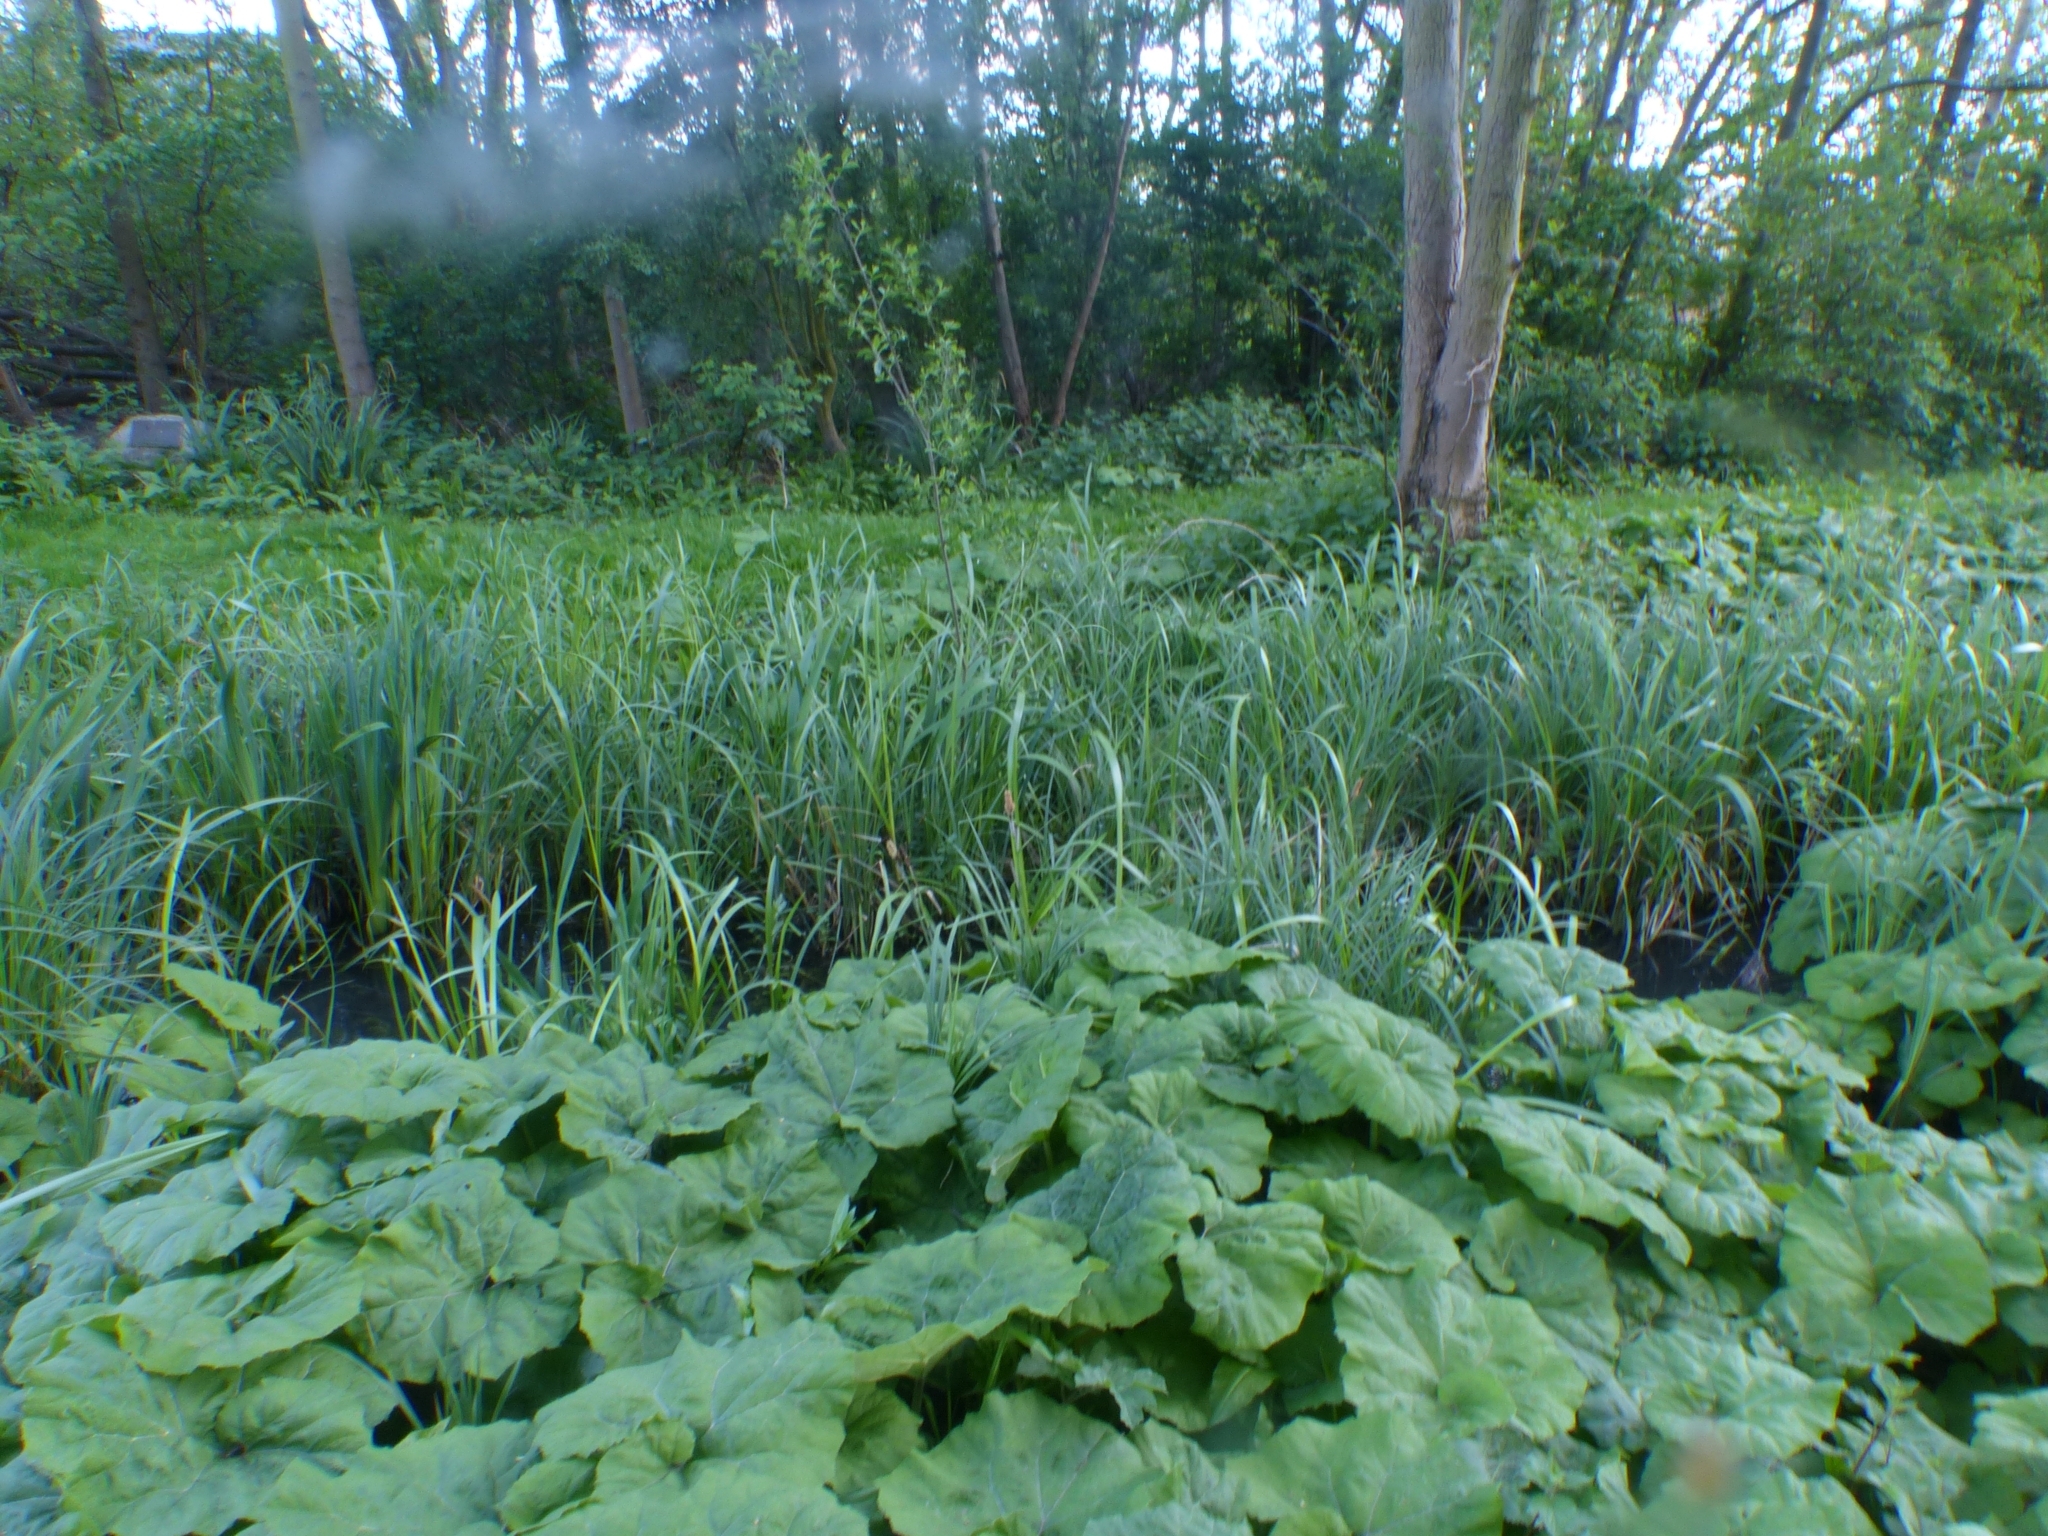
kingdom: Plantae
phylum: Tracheophyta
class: Magnoliopsida
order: Asterales
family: Asteraceae
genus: Petasites
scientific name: Petasites hybridus
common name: Butterbur
